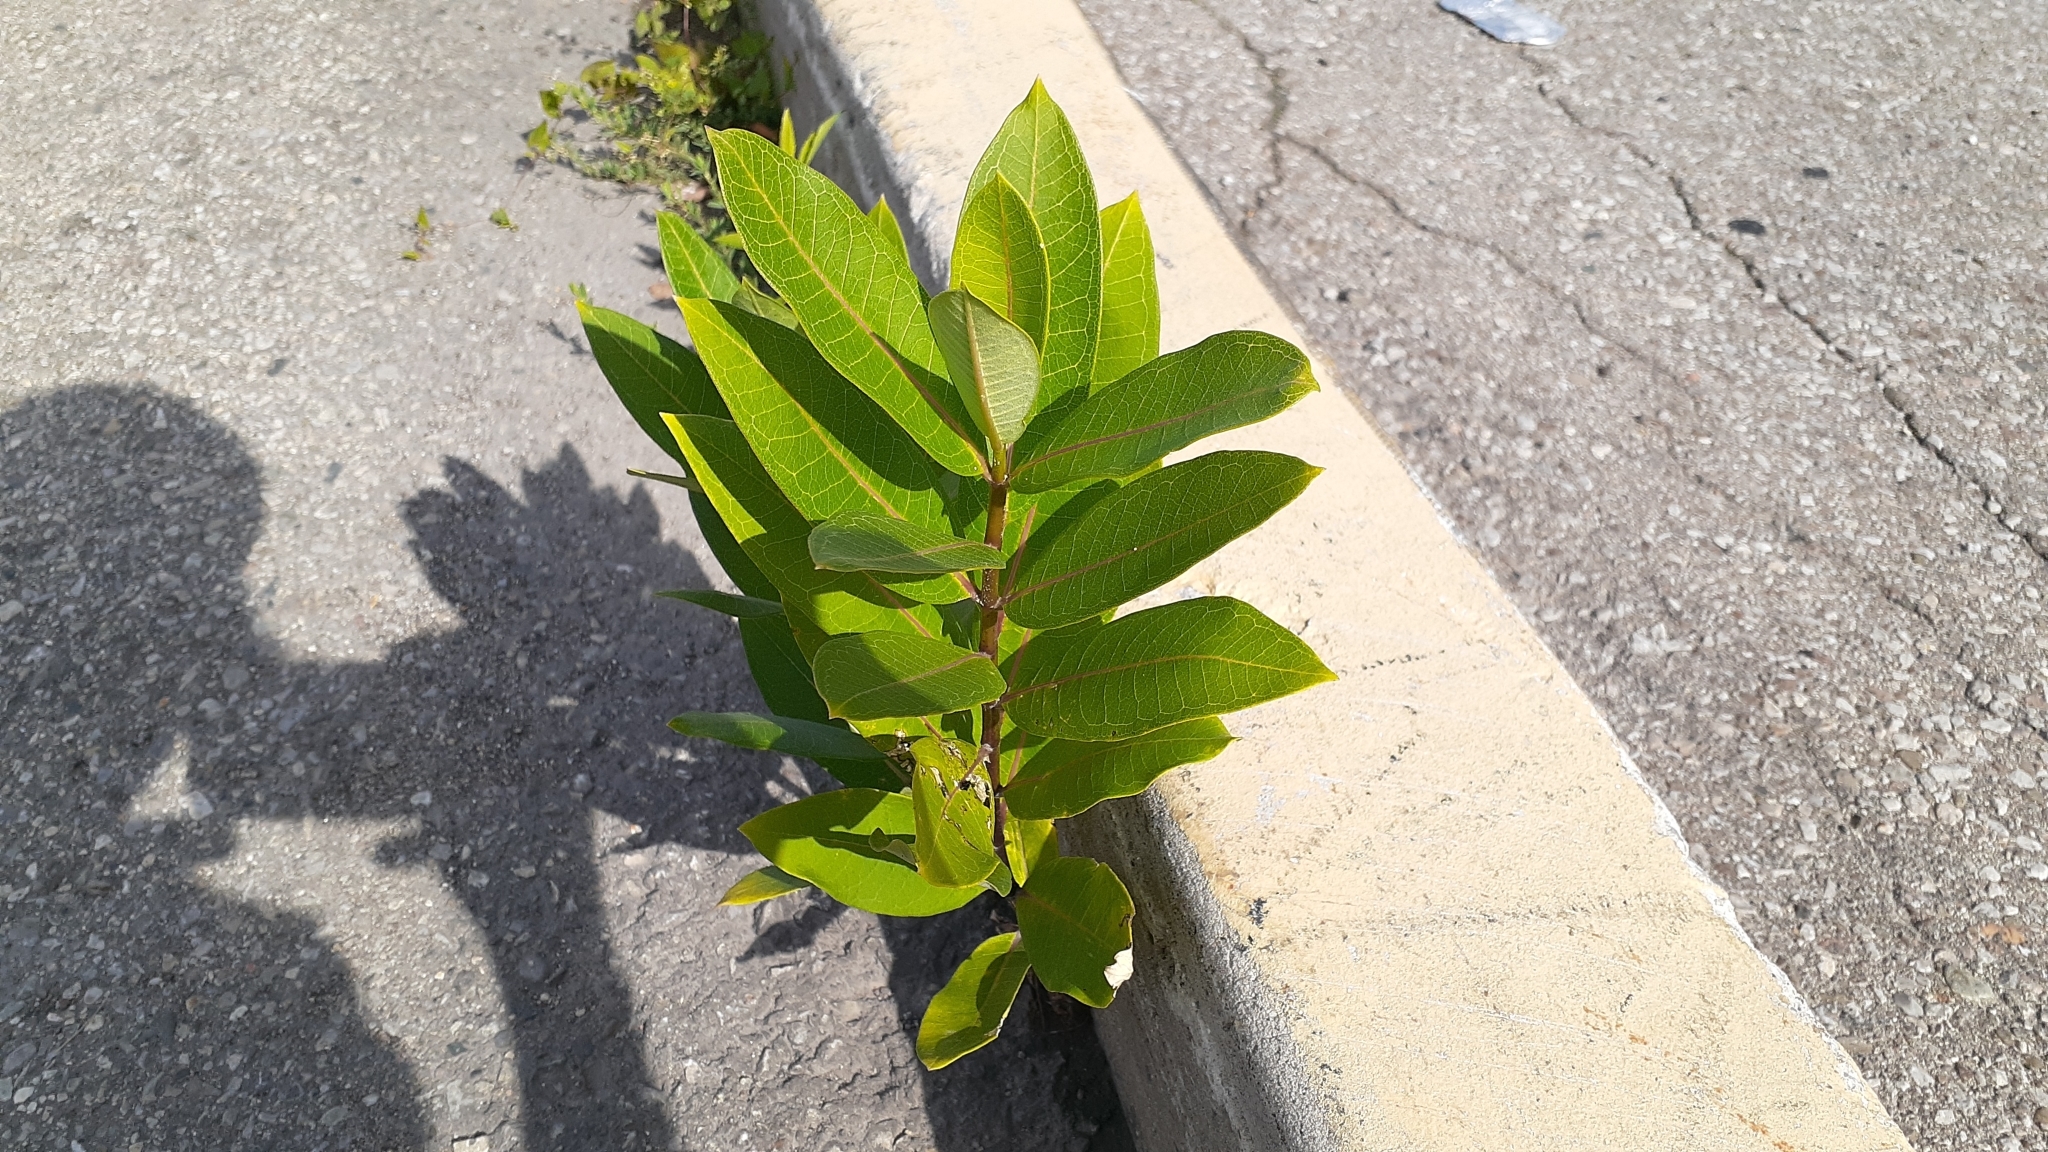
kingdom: Plantae
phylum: Tracheophyta
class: Magnoliopsida
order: Gentianales
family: Apocynaceae
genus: Asclepias
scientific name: Asclepias syriaca
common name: Common milkweed
